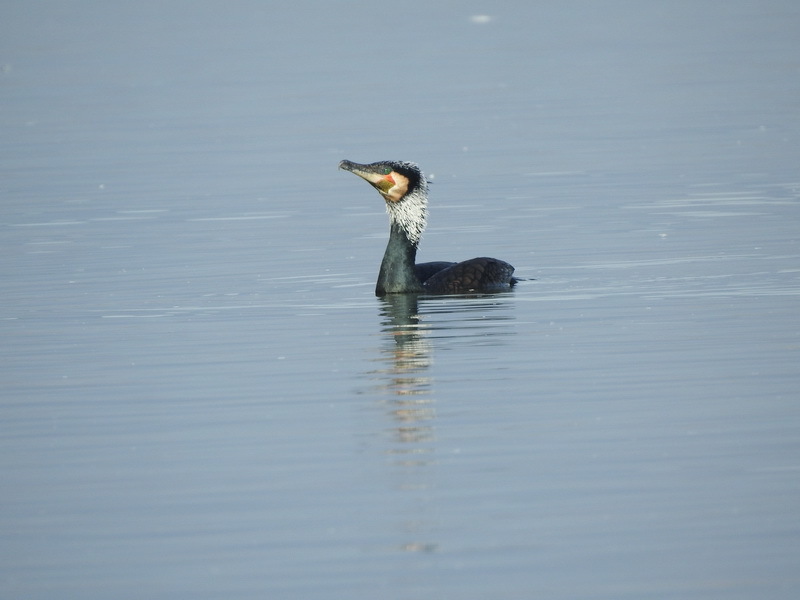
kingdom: Animalia
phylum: Chordata
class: Aves
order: Suliformes
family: Phalacrocoracidae
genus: Phalacrocorax
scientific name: Phalacrocorax carbo
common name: Great cormorant
